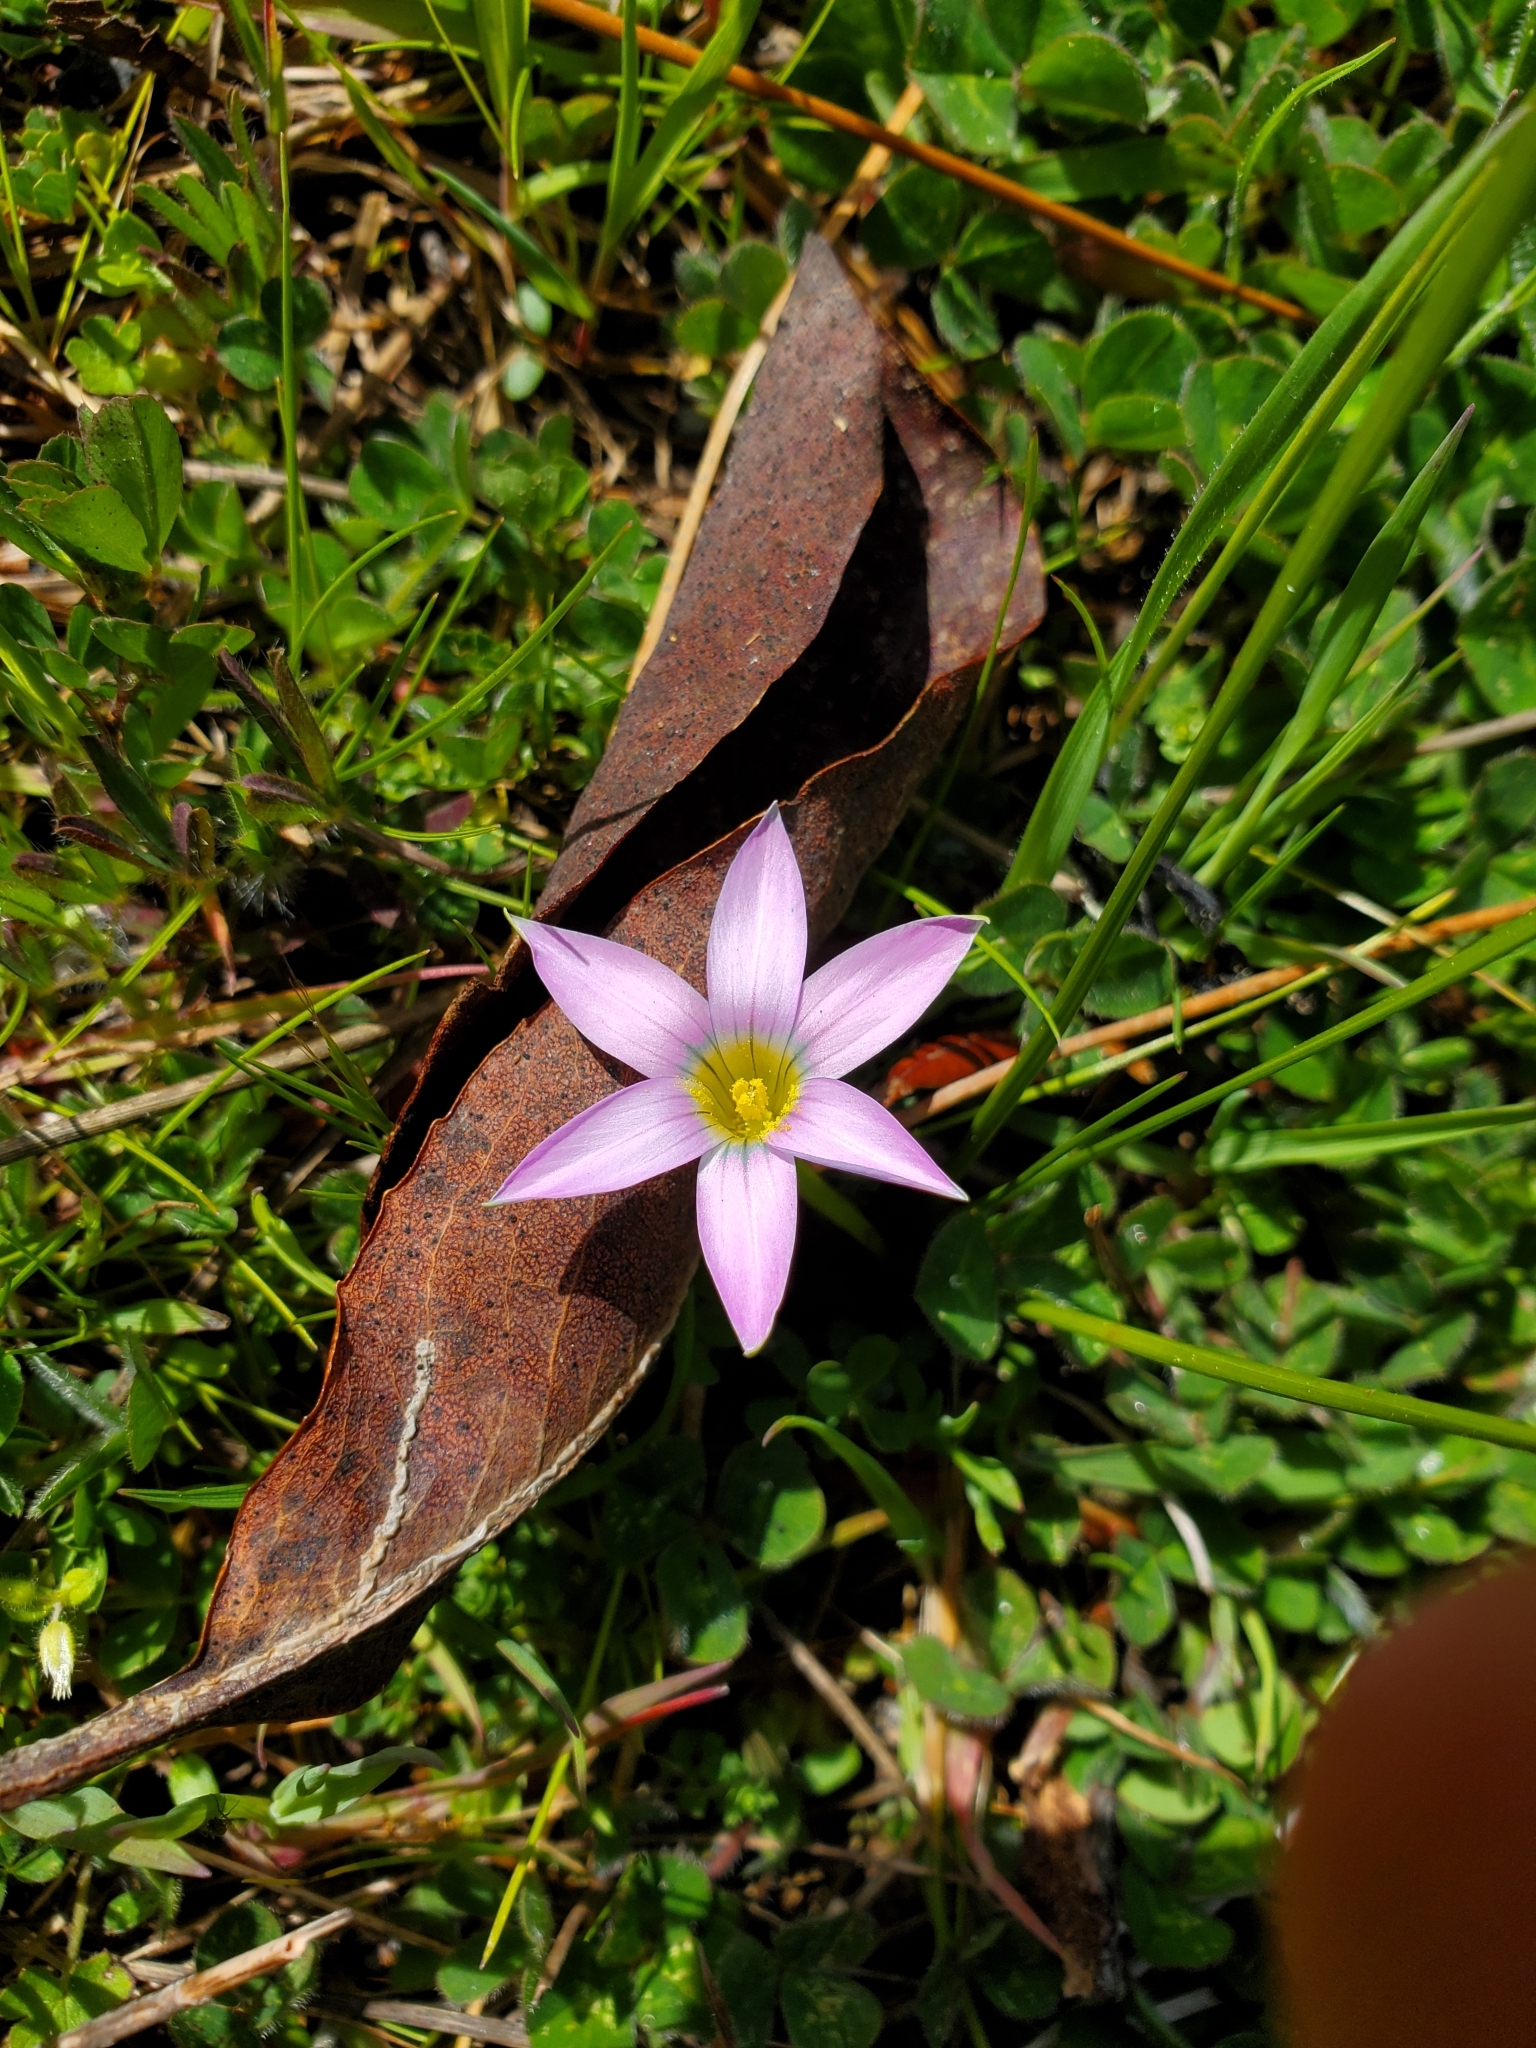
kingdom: Plantae
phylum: Tracheophyta
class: Liliopsida
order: Asparagales
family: Iridaceae
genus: Romulea
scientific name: Romulea rosea
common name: Oniongrass
